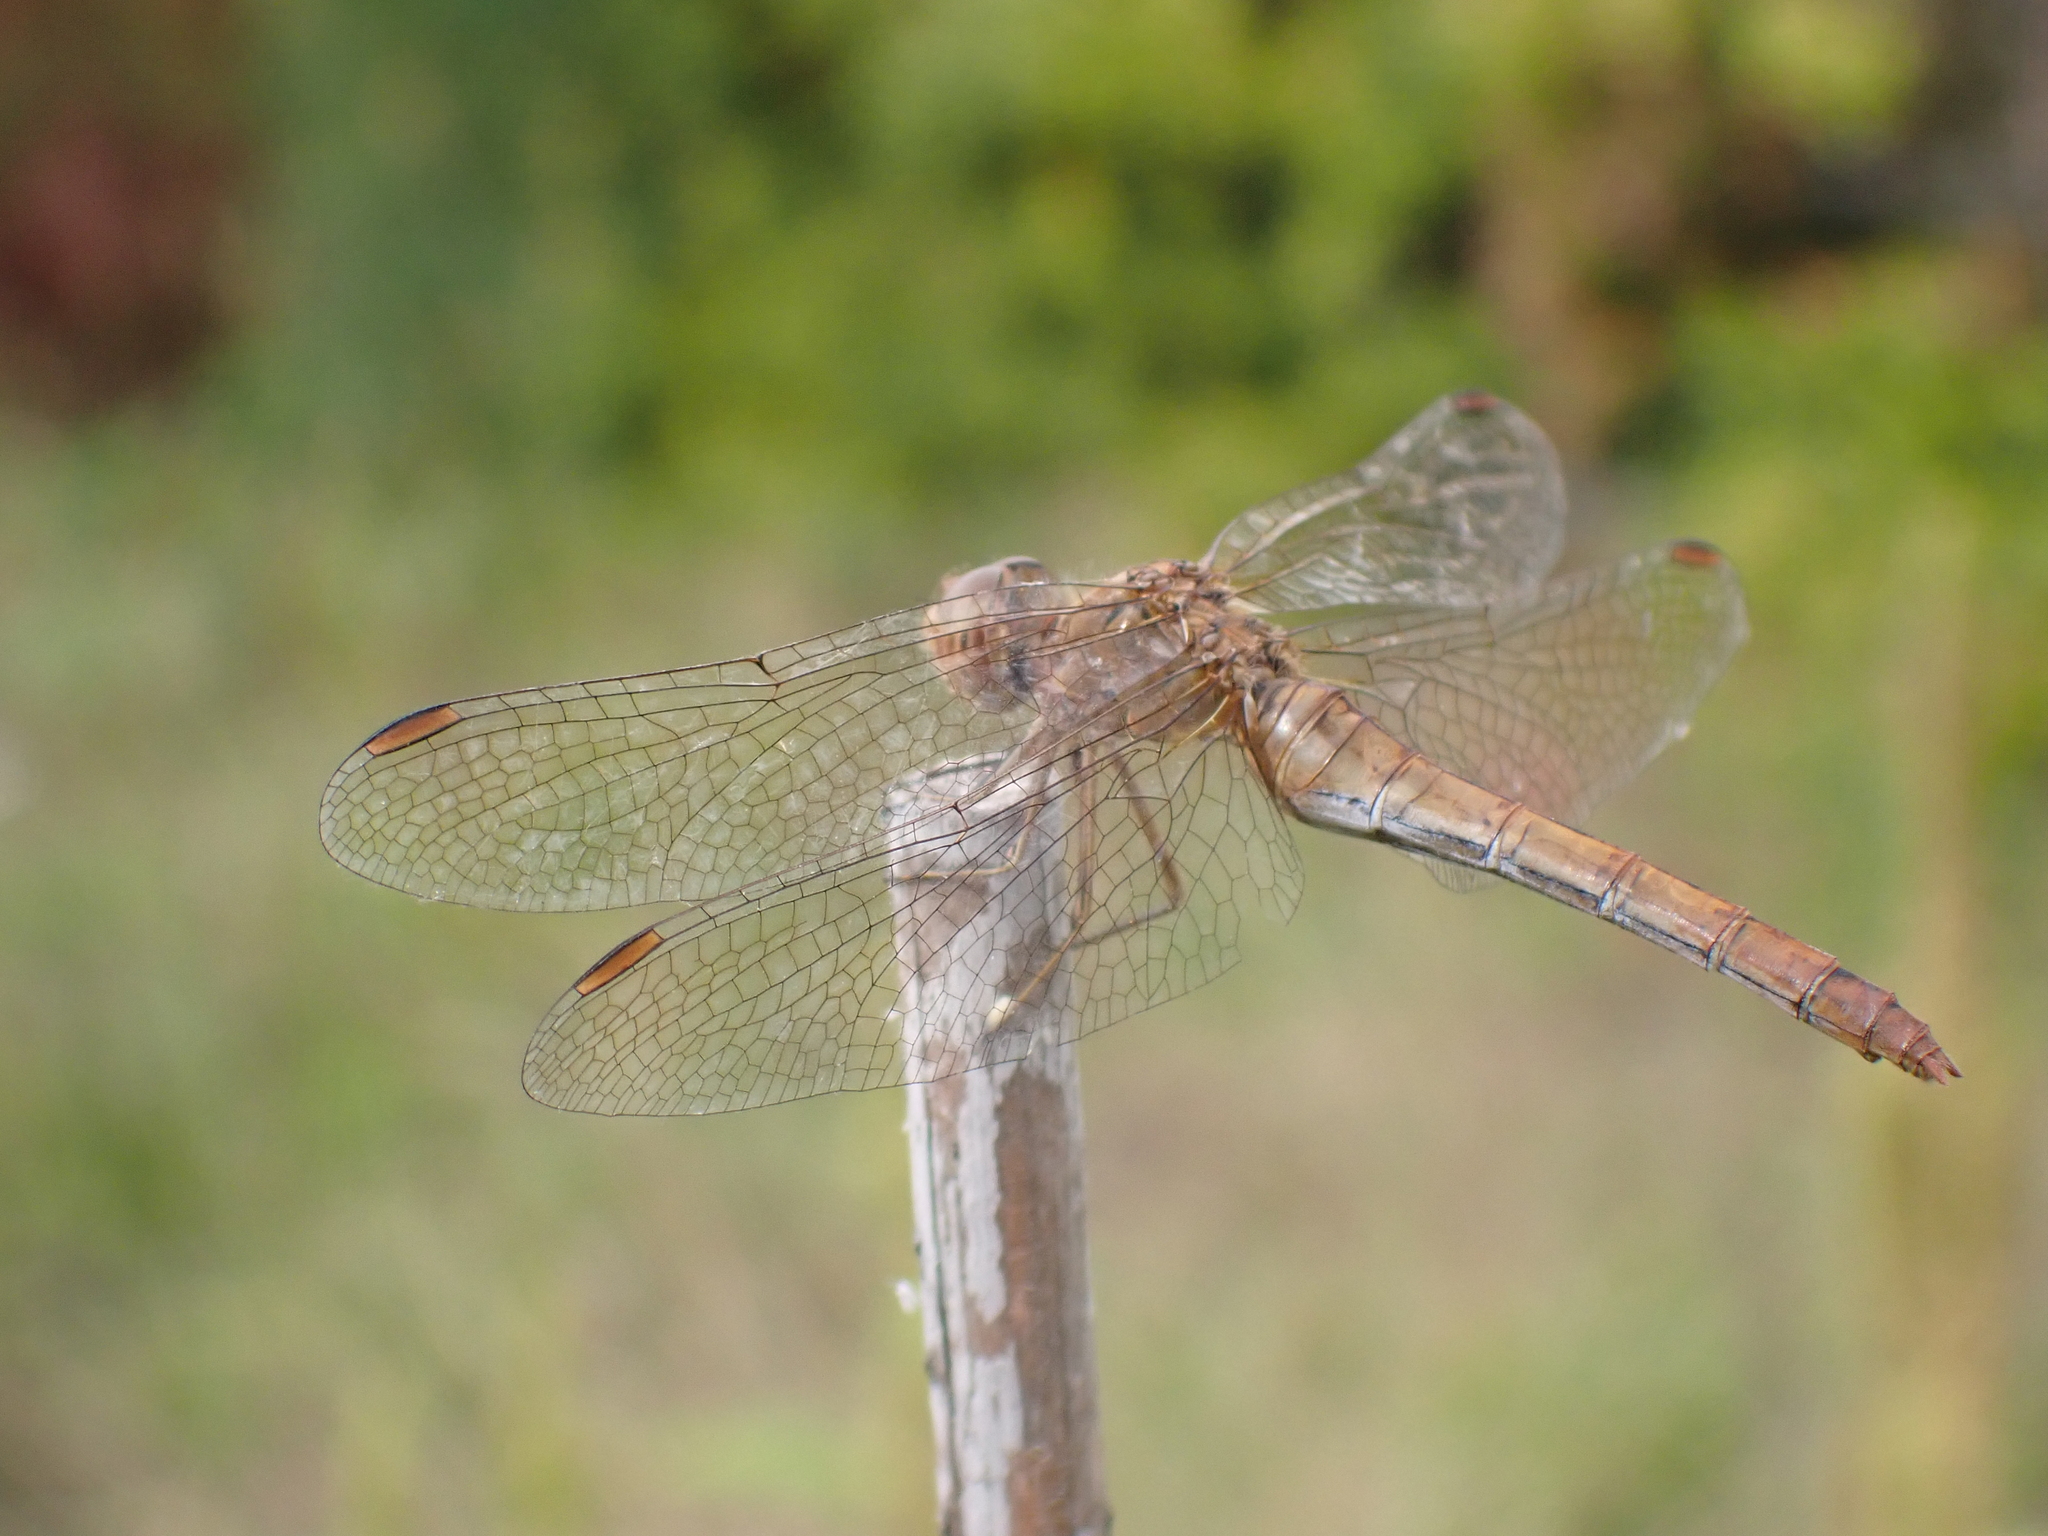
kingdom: Animalia
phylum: Arthropoda
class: Insecta
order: Odonata
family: Libellulidae
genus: Sympetrum
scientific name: Sympetrum meridionale
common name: Southern darter
